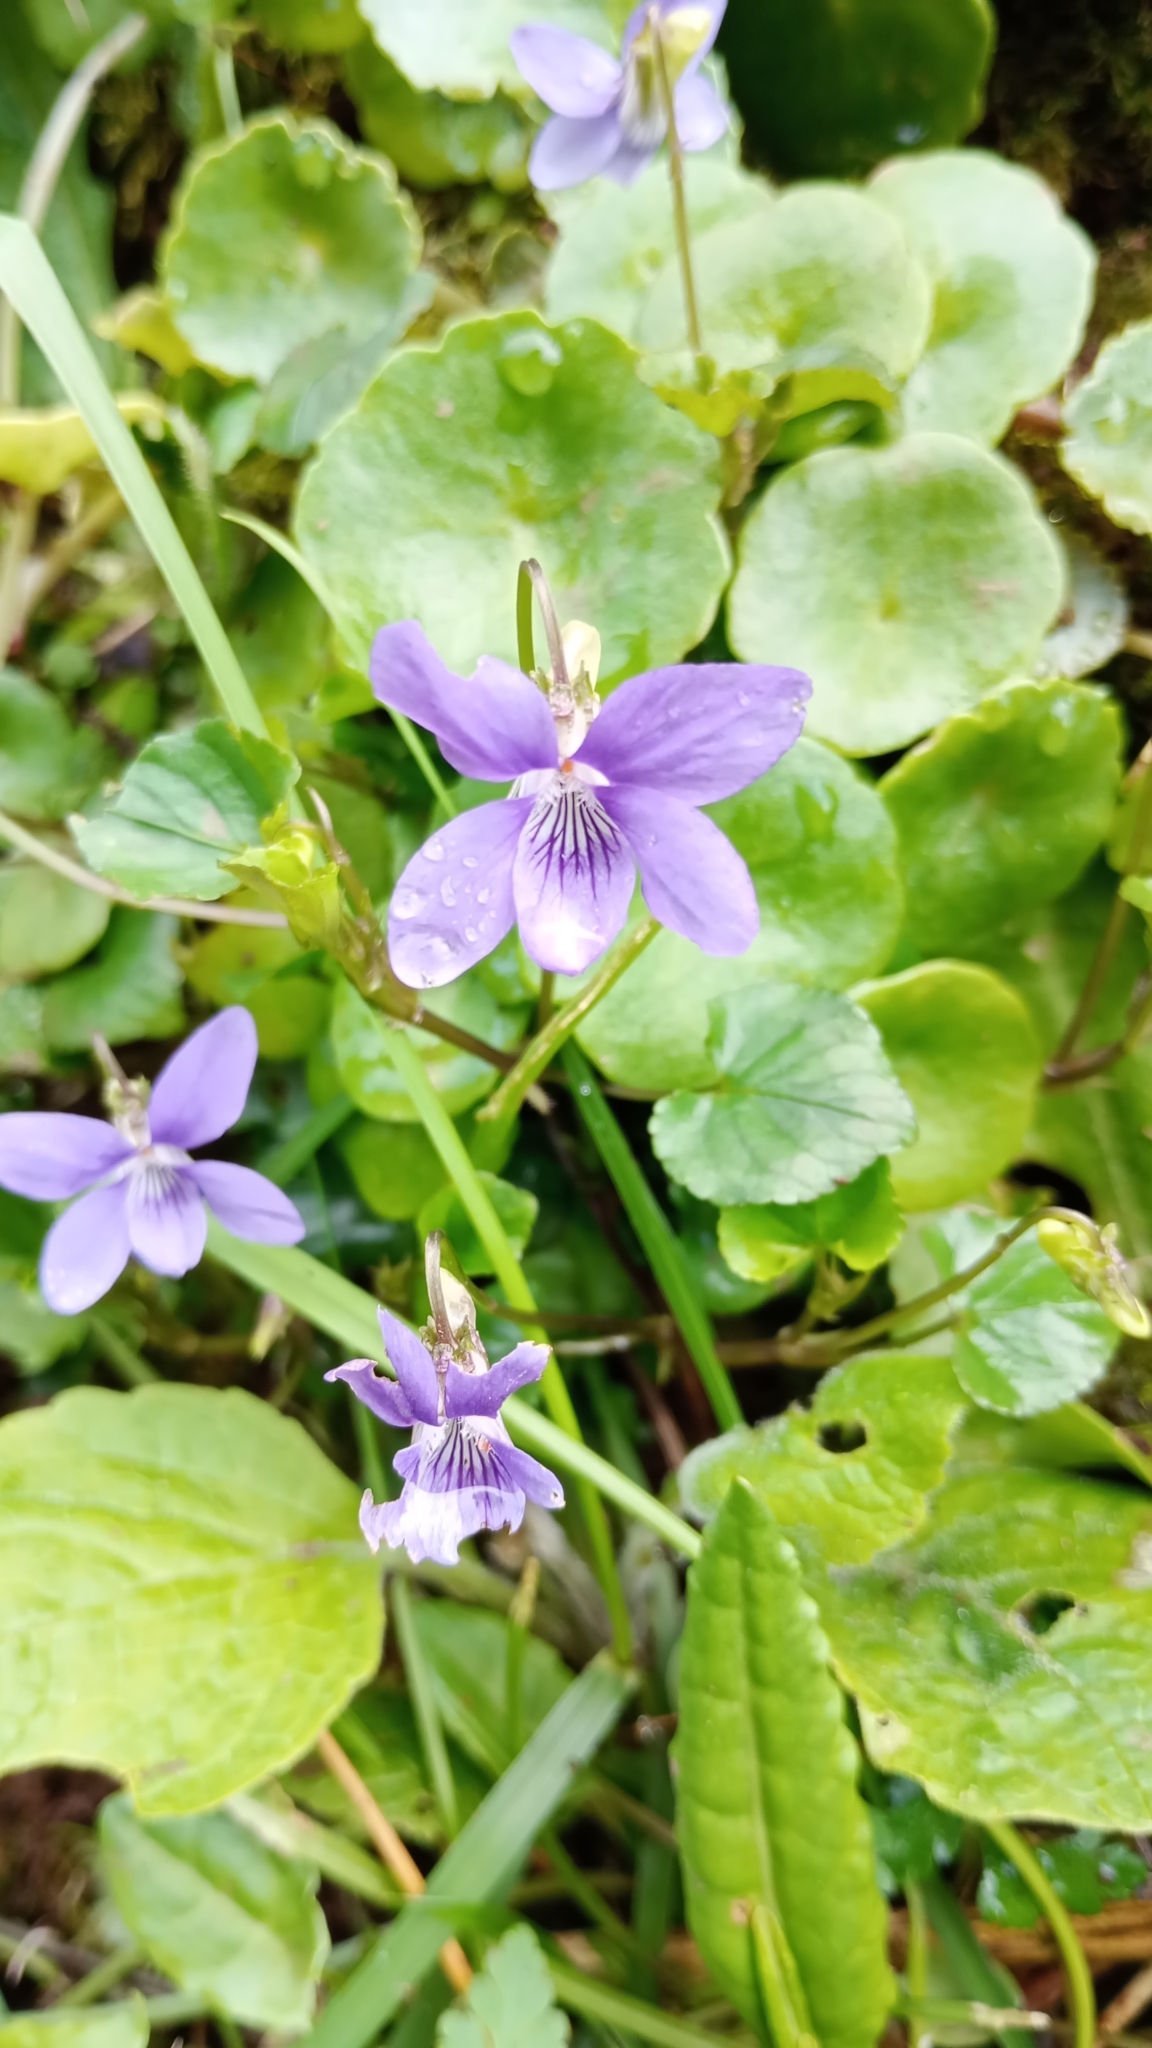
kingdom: Plantae
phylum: Tracheophyta
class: Magnoliopsida
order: Malpighiales
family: Violaceae
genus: Viola
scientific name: Viola riviniana
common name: Common dog-violet
